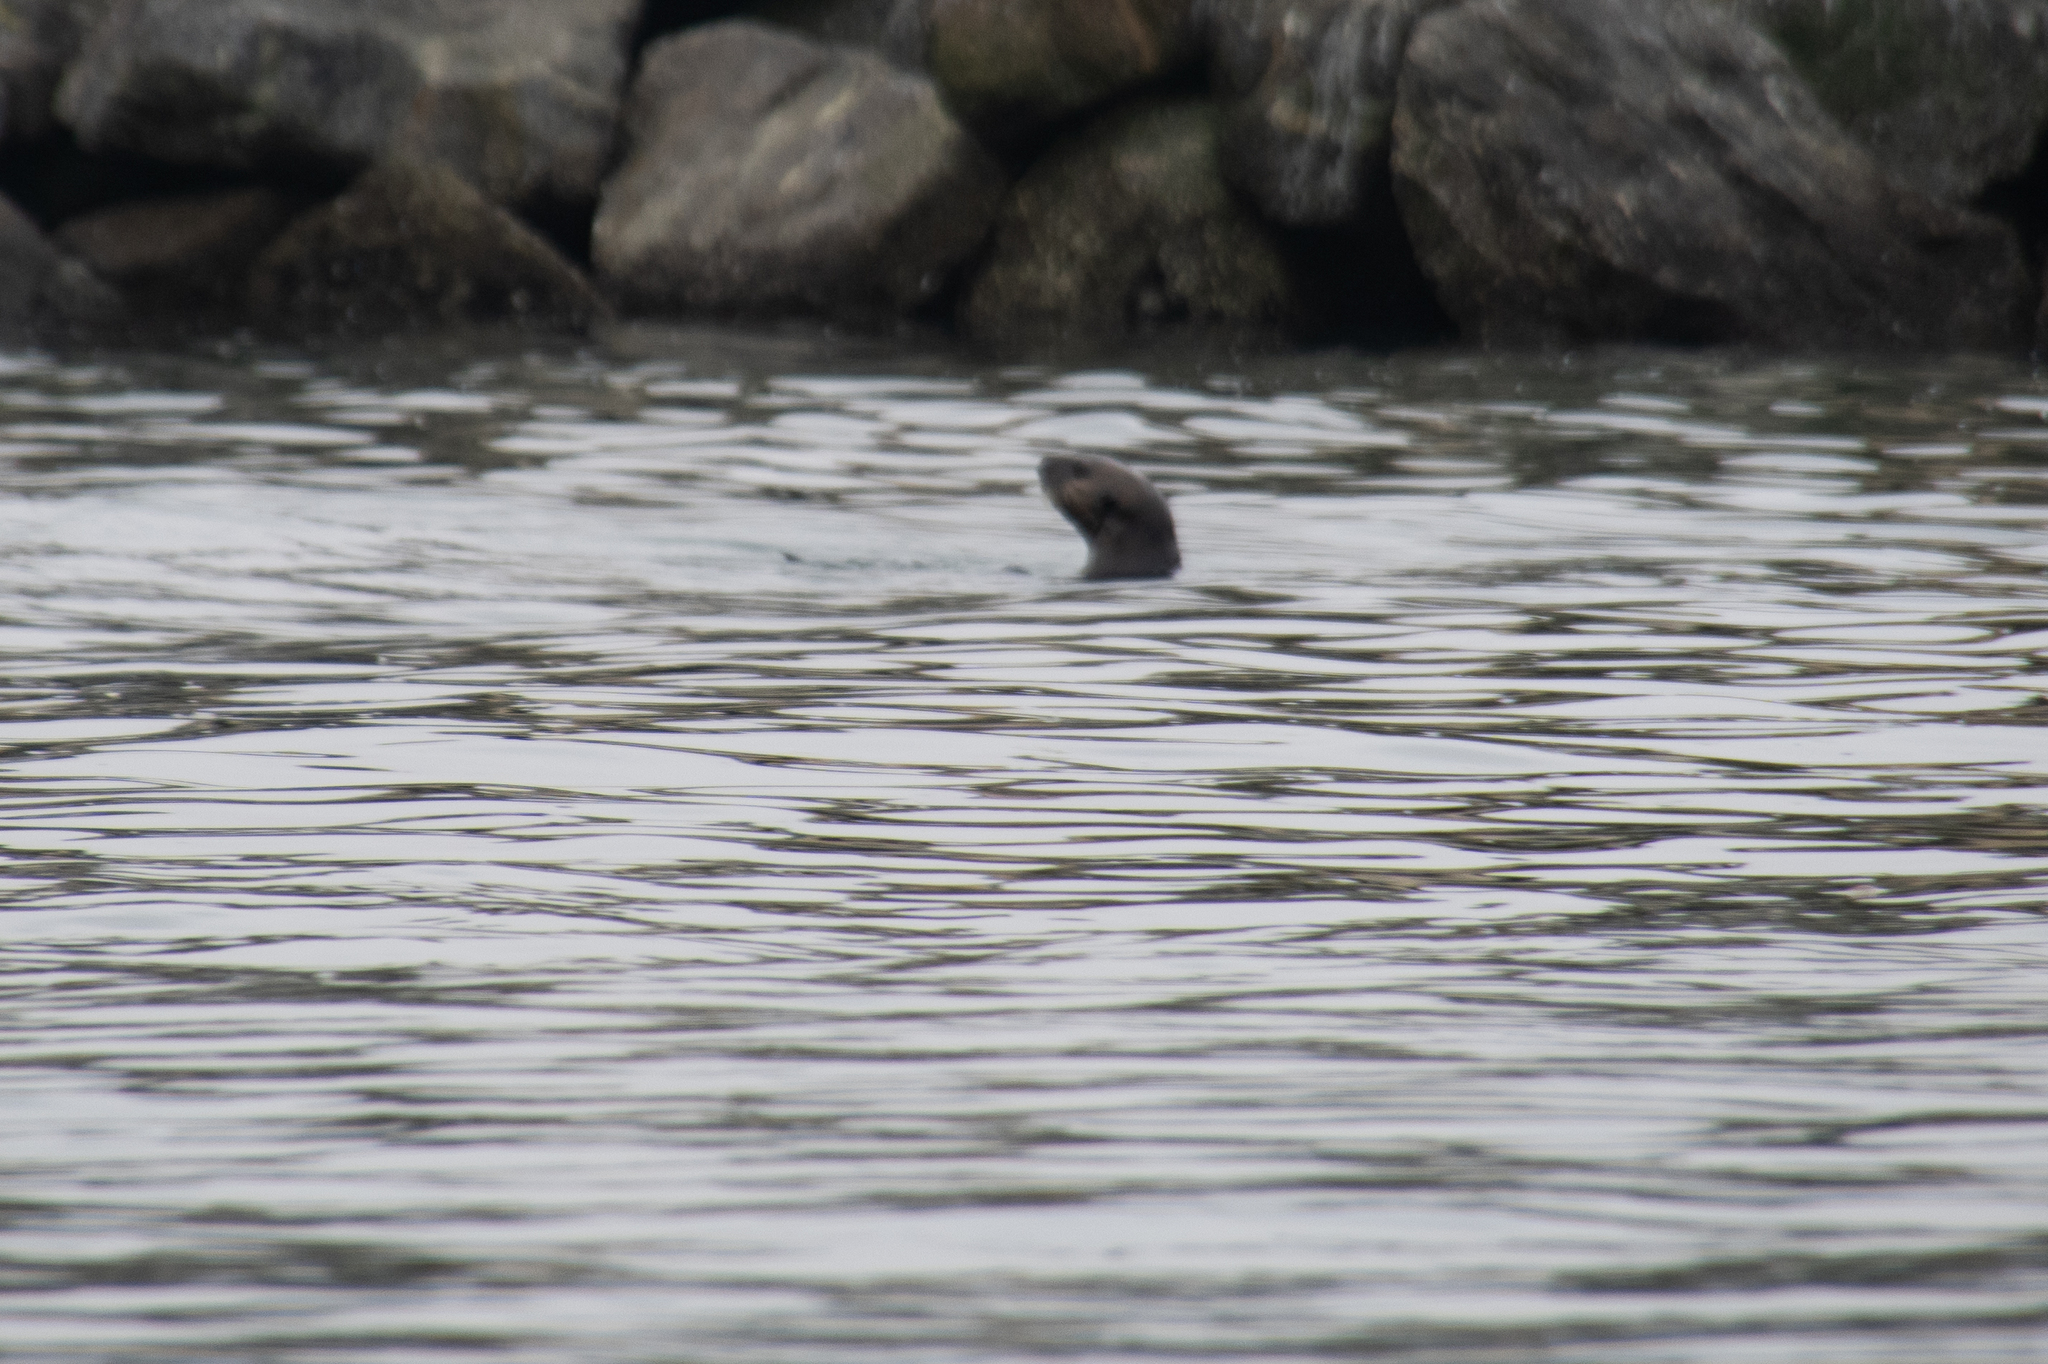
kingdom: Animalia
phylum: Chordata
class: Mammalia
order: Carnivora
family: Mustelidae
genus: Enhydra
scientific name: Enhydra lutris
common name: Sea otter
